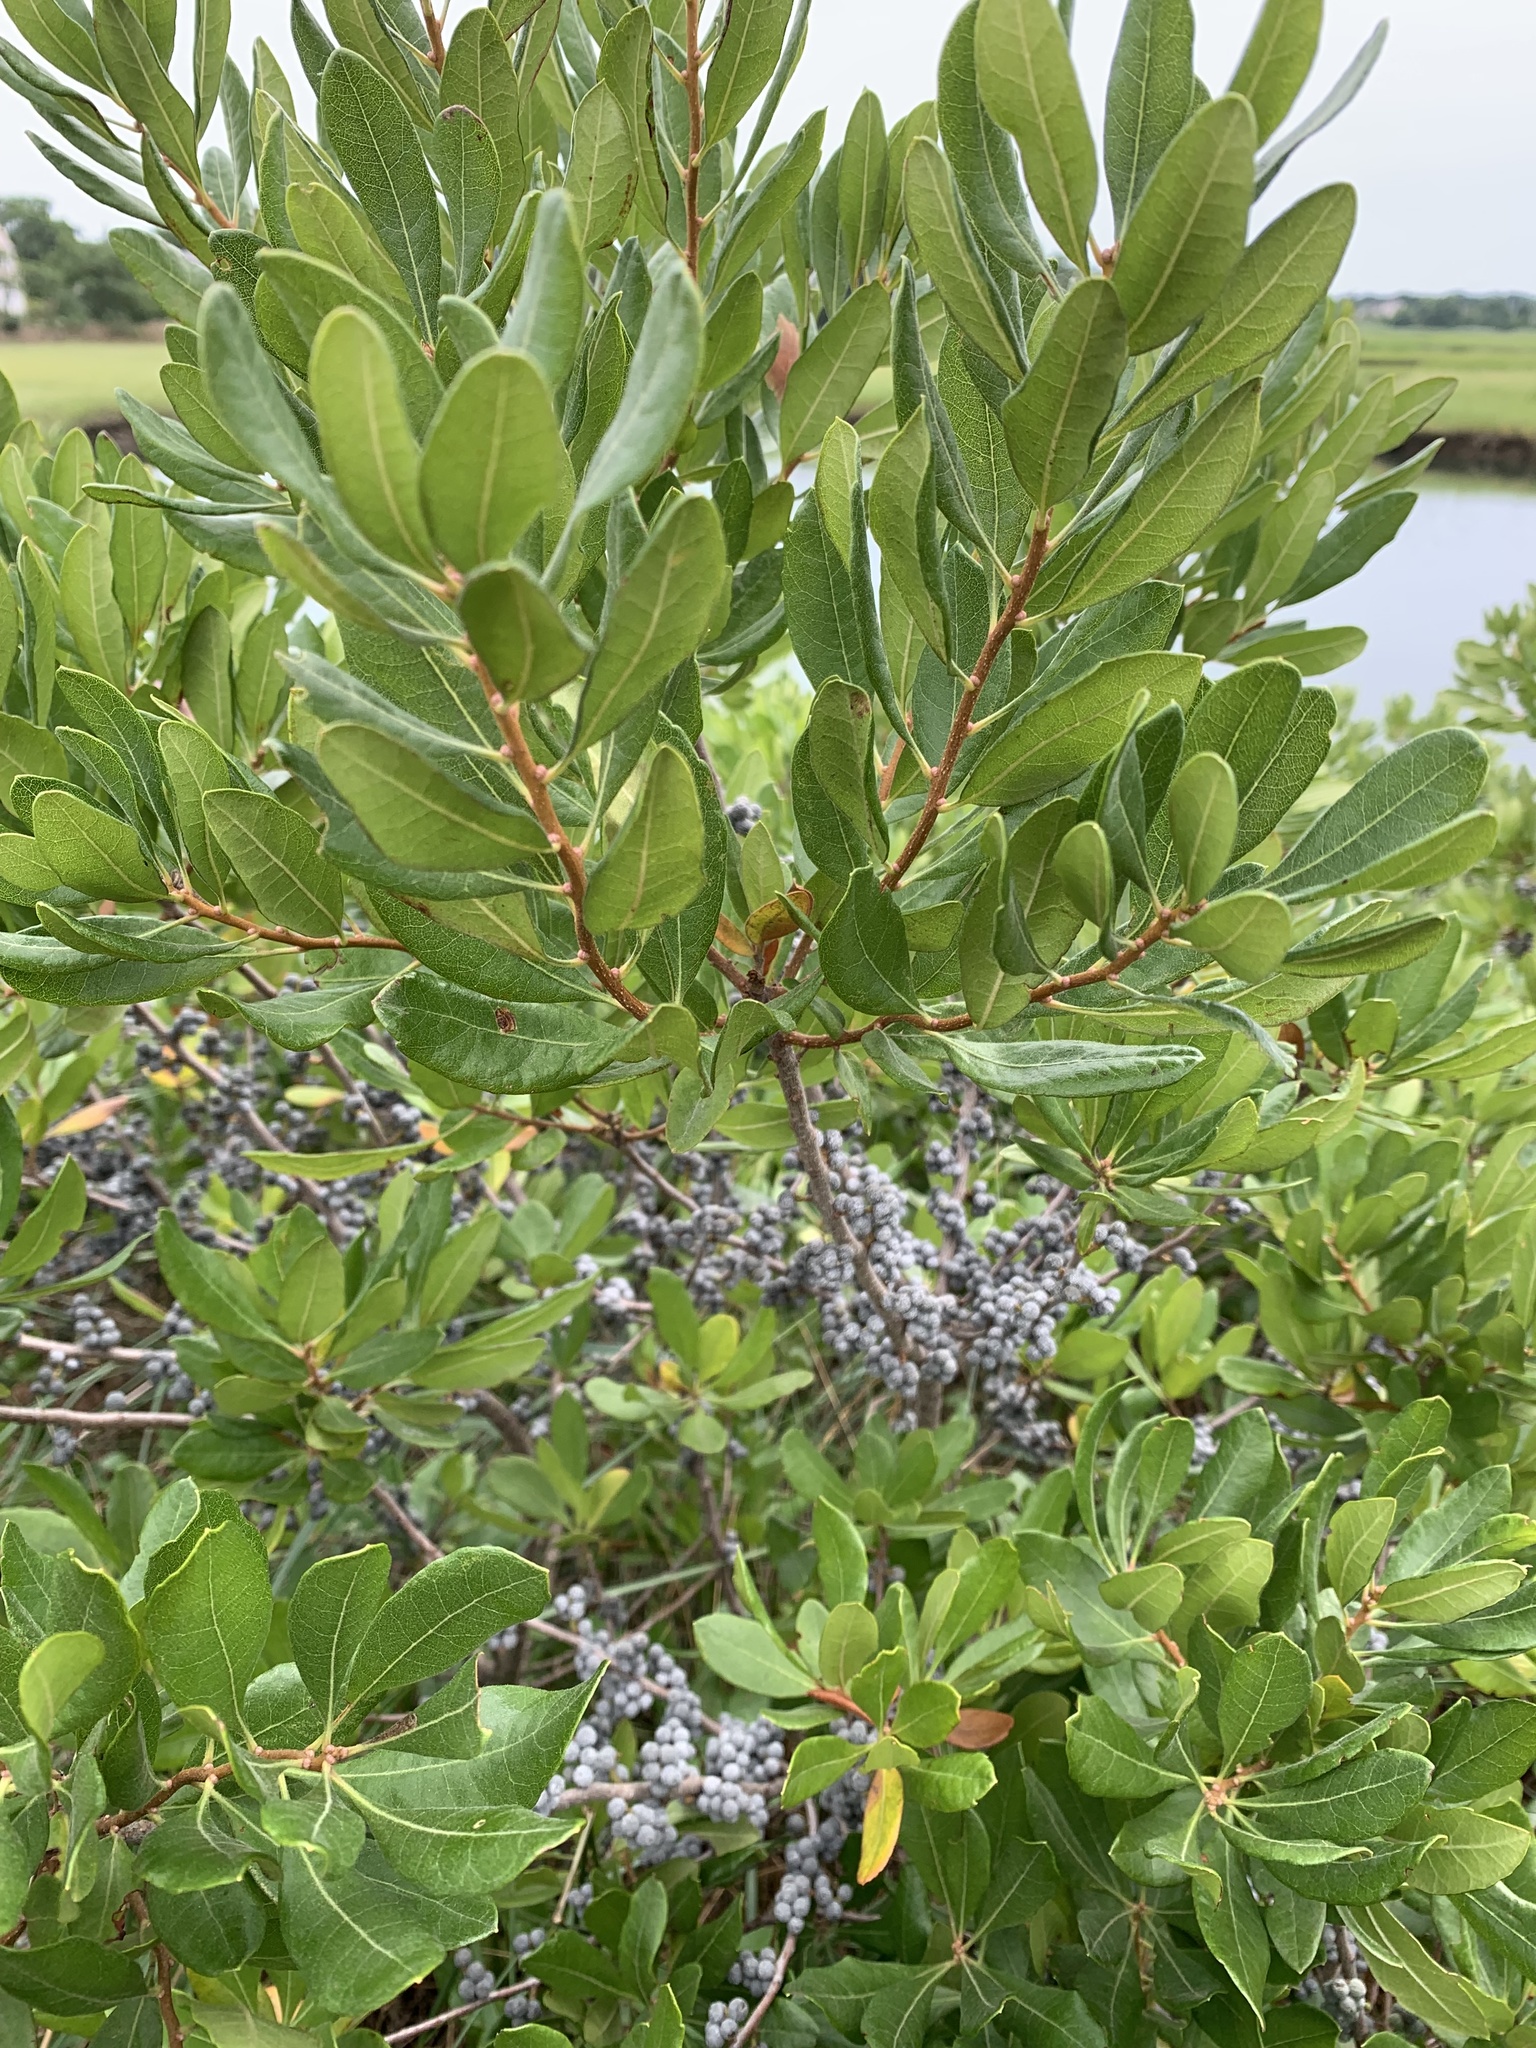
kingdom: Plantae
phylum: Tracheophyta
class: Magnoliopsida
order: Fagales
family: Myricaceae
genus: Morella
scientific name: Morella pensylvanica
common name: Northern bayberry
